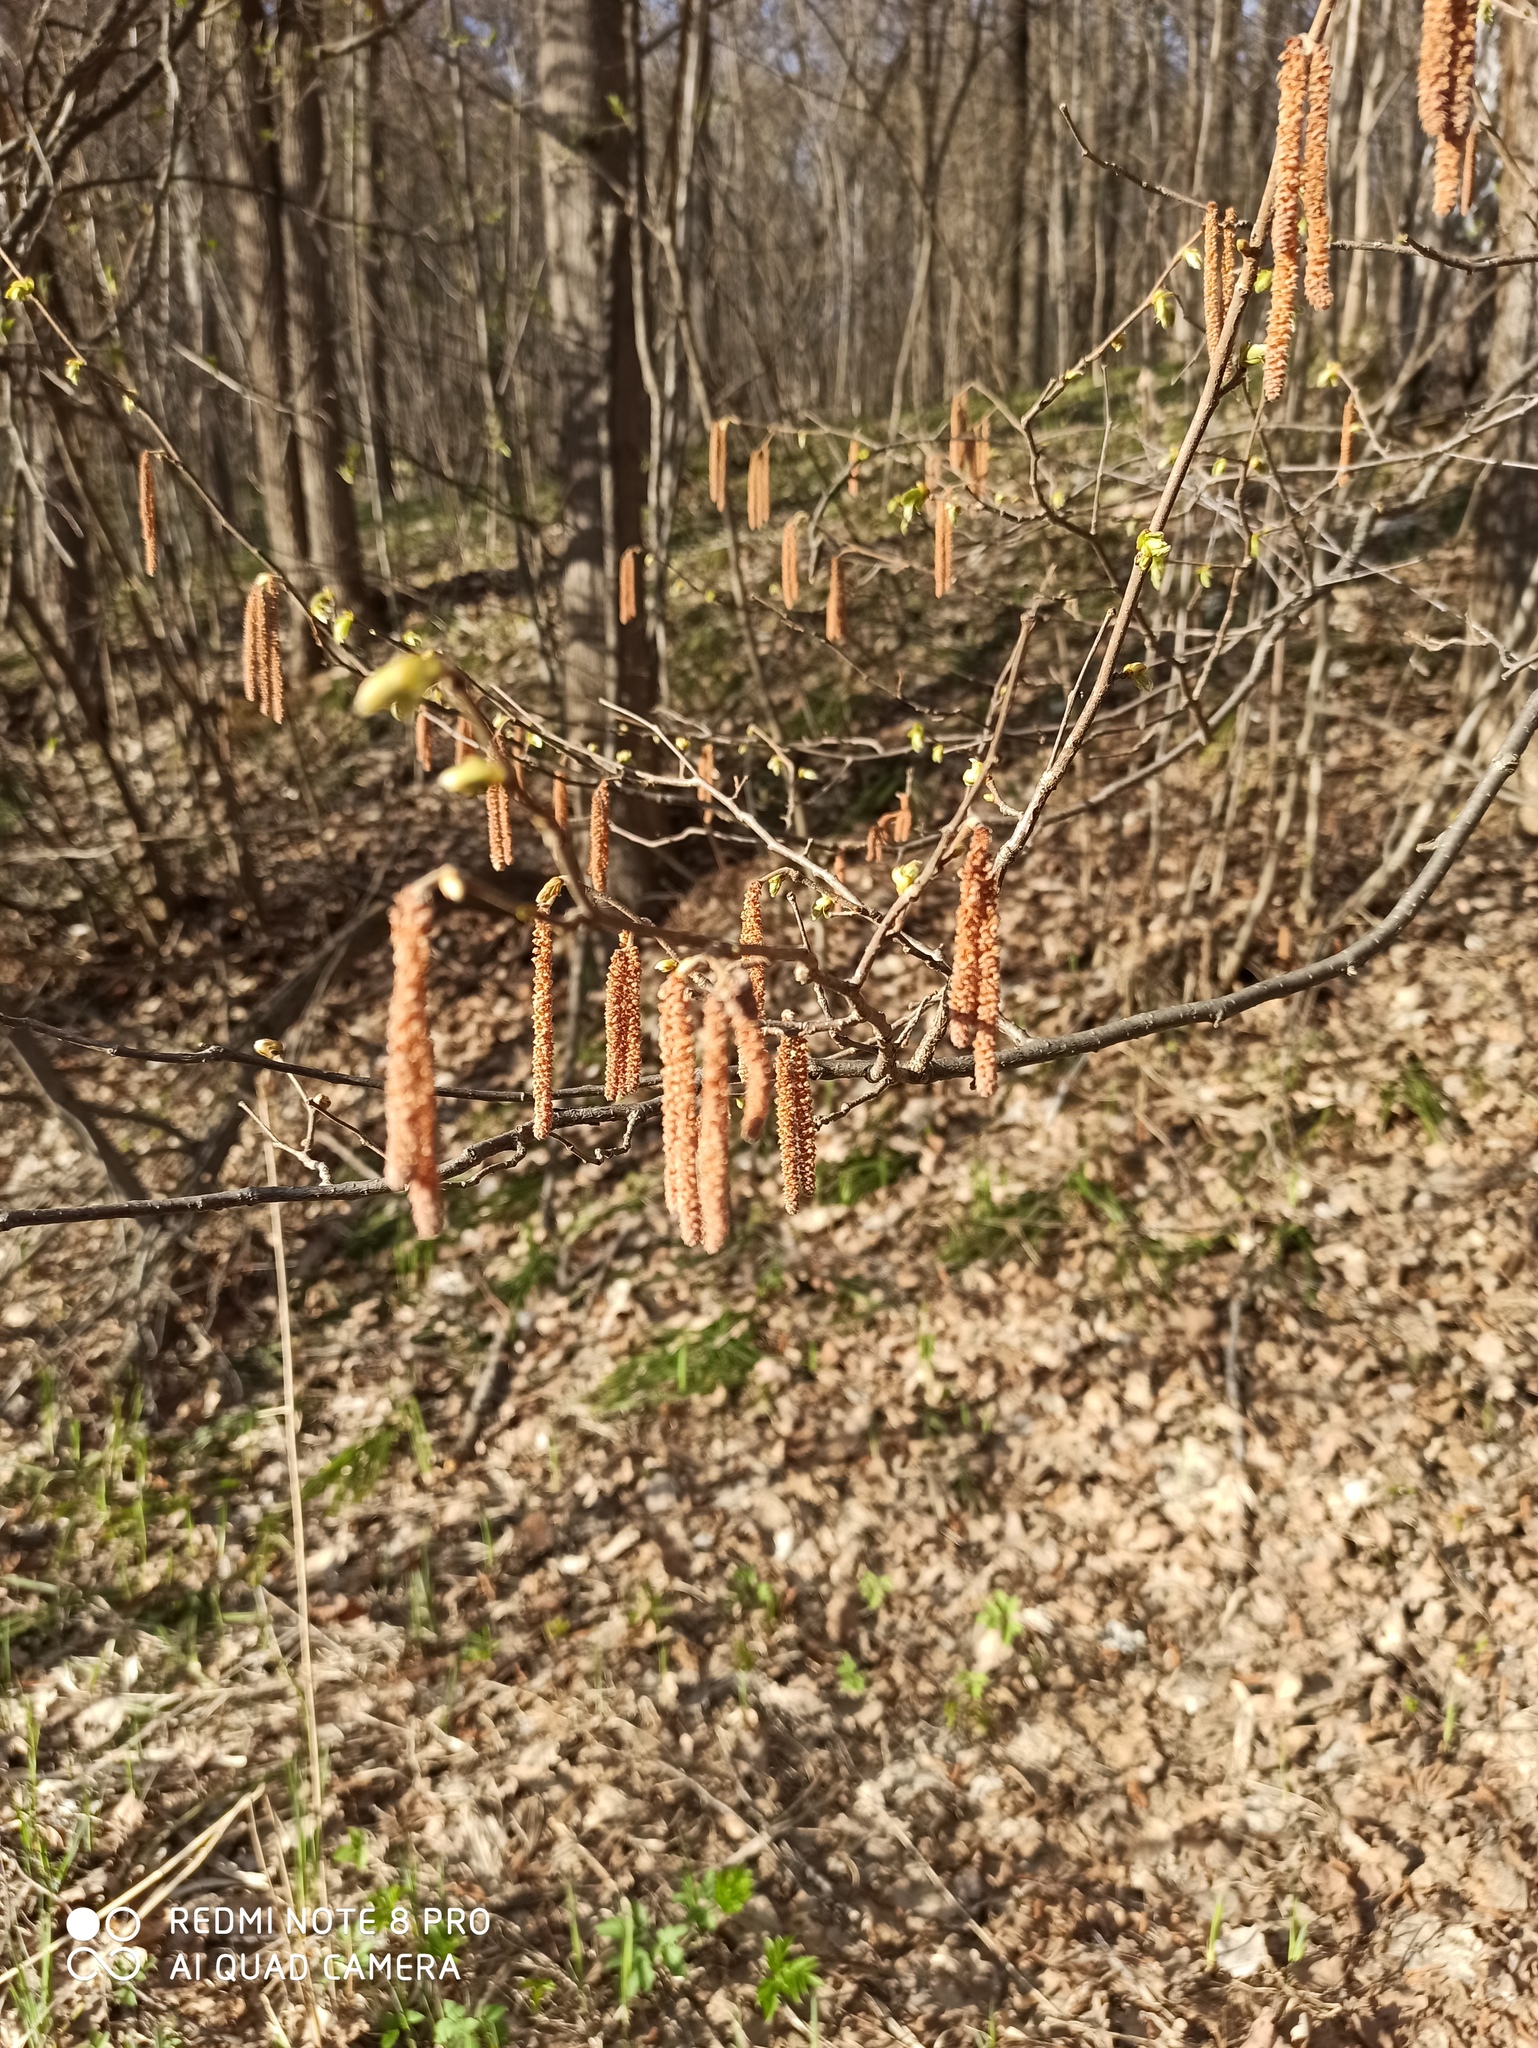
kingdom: Plantae
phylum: Tracheophyta
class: Magnoliopsida
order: Fagales
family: Betulaceae
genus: Corylus
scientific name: Corylus avellana
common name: European hazel
